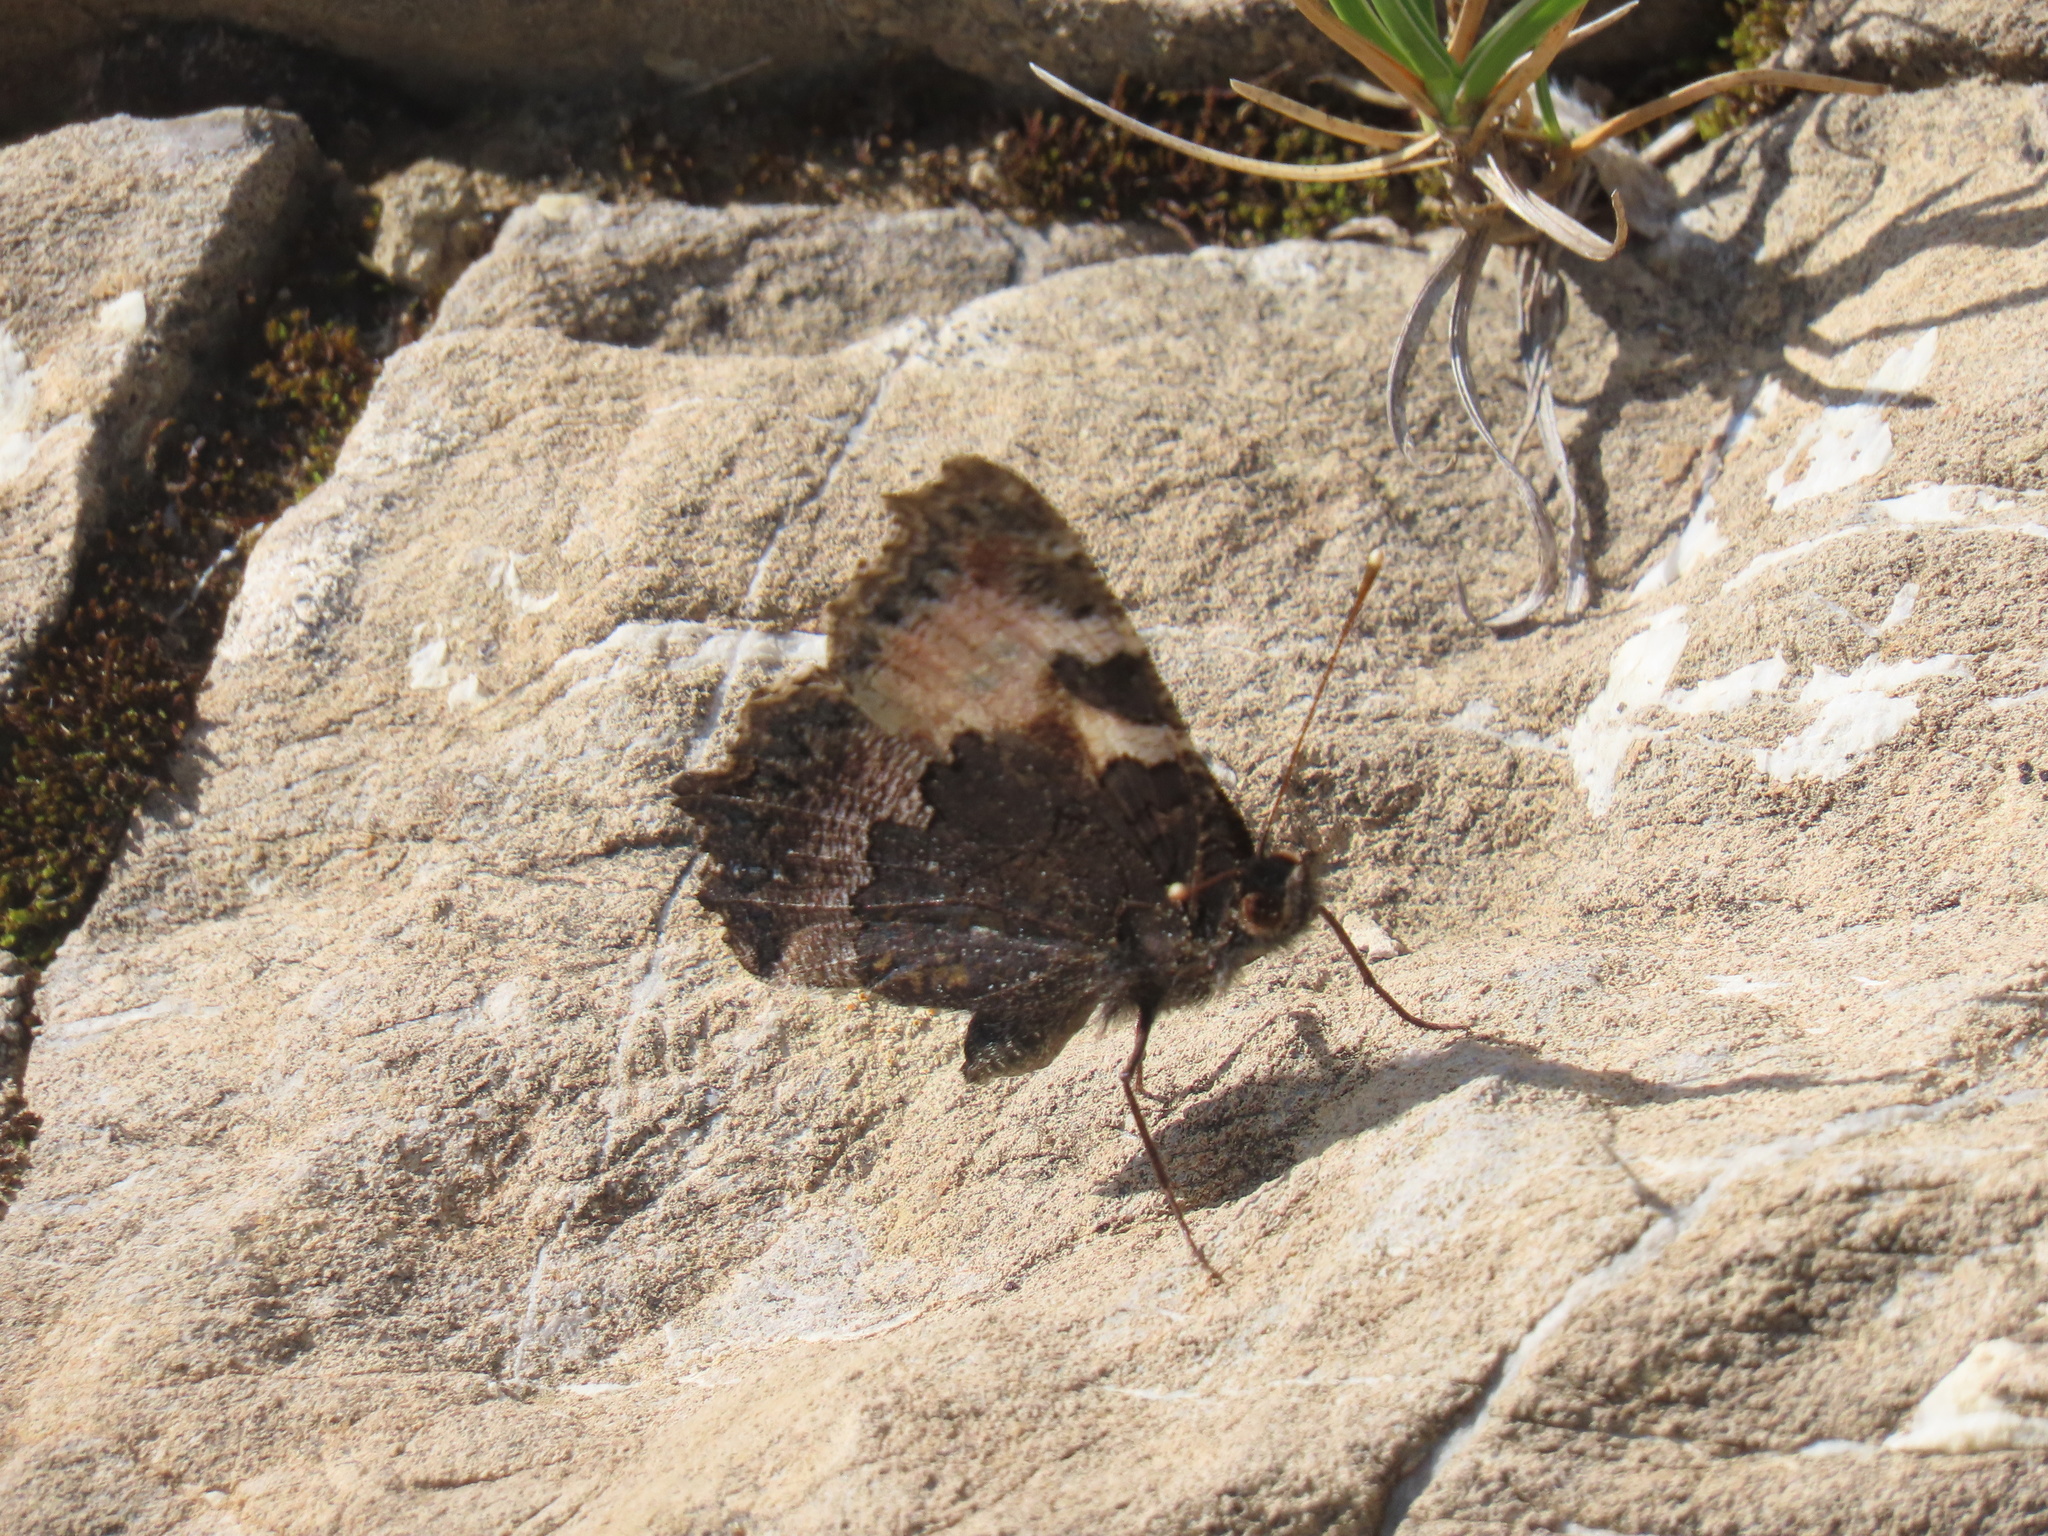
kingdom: Animalia
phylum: Arthropoda
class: Insecta
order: Lepidoptera
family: Nymphalidae
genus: Aglais
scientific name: Aglais urticae
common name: Small tortoiseshell
